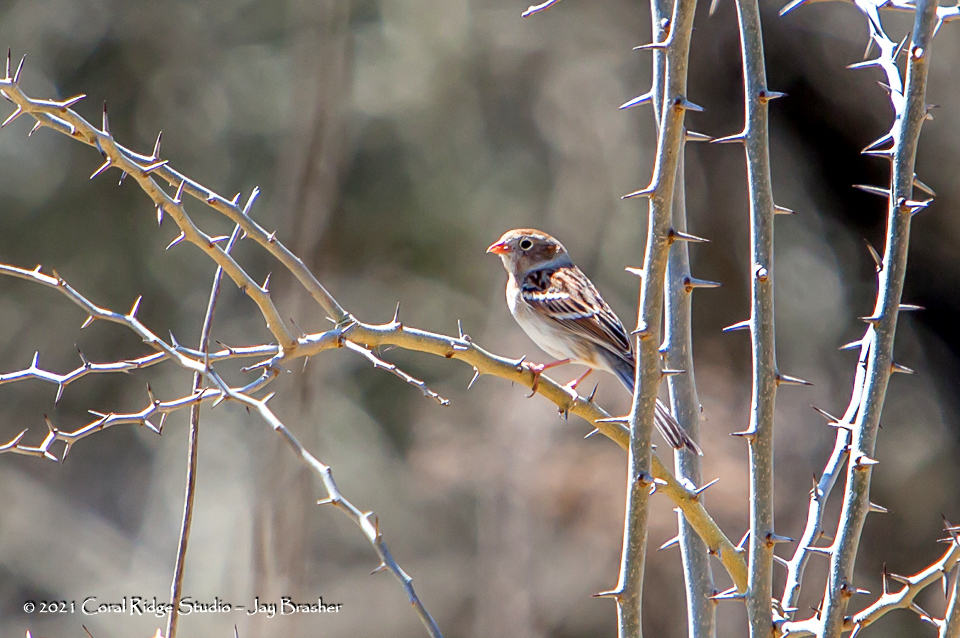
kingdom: Animalia
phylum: Chordata
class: Aves
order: Passeriformes
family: Passerellidae
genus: Spizella
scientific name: Spizella pusilla
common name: Field sparrow
